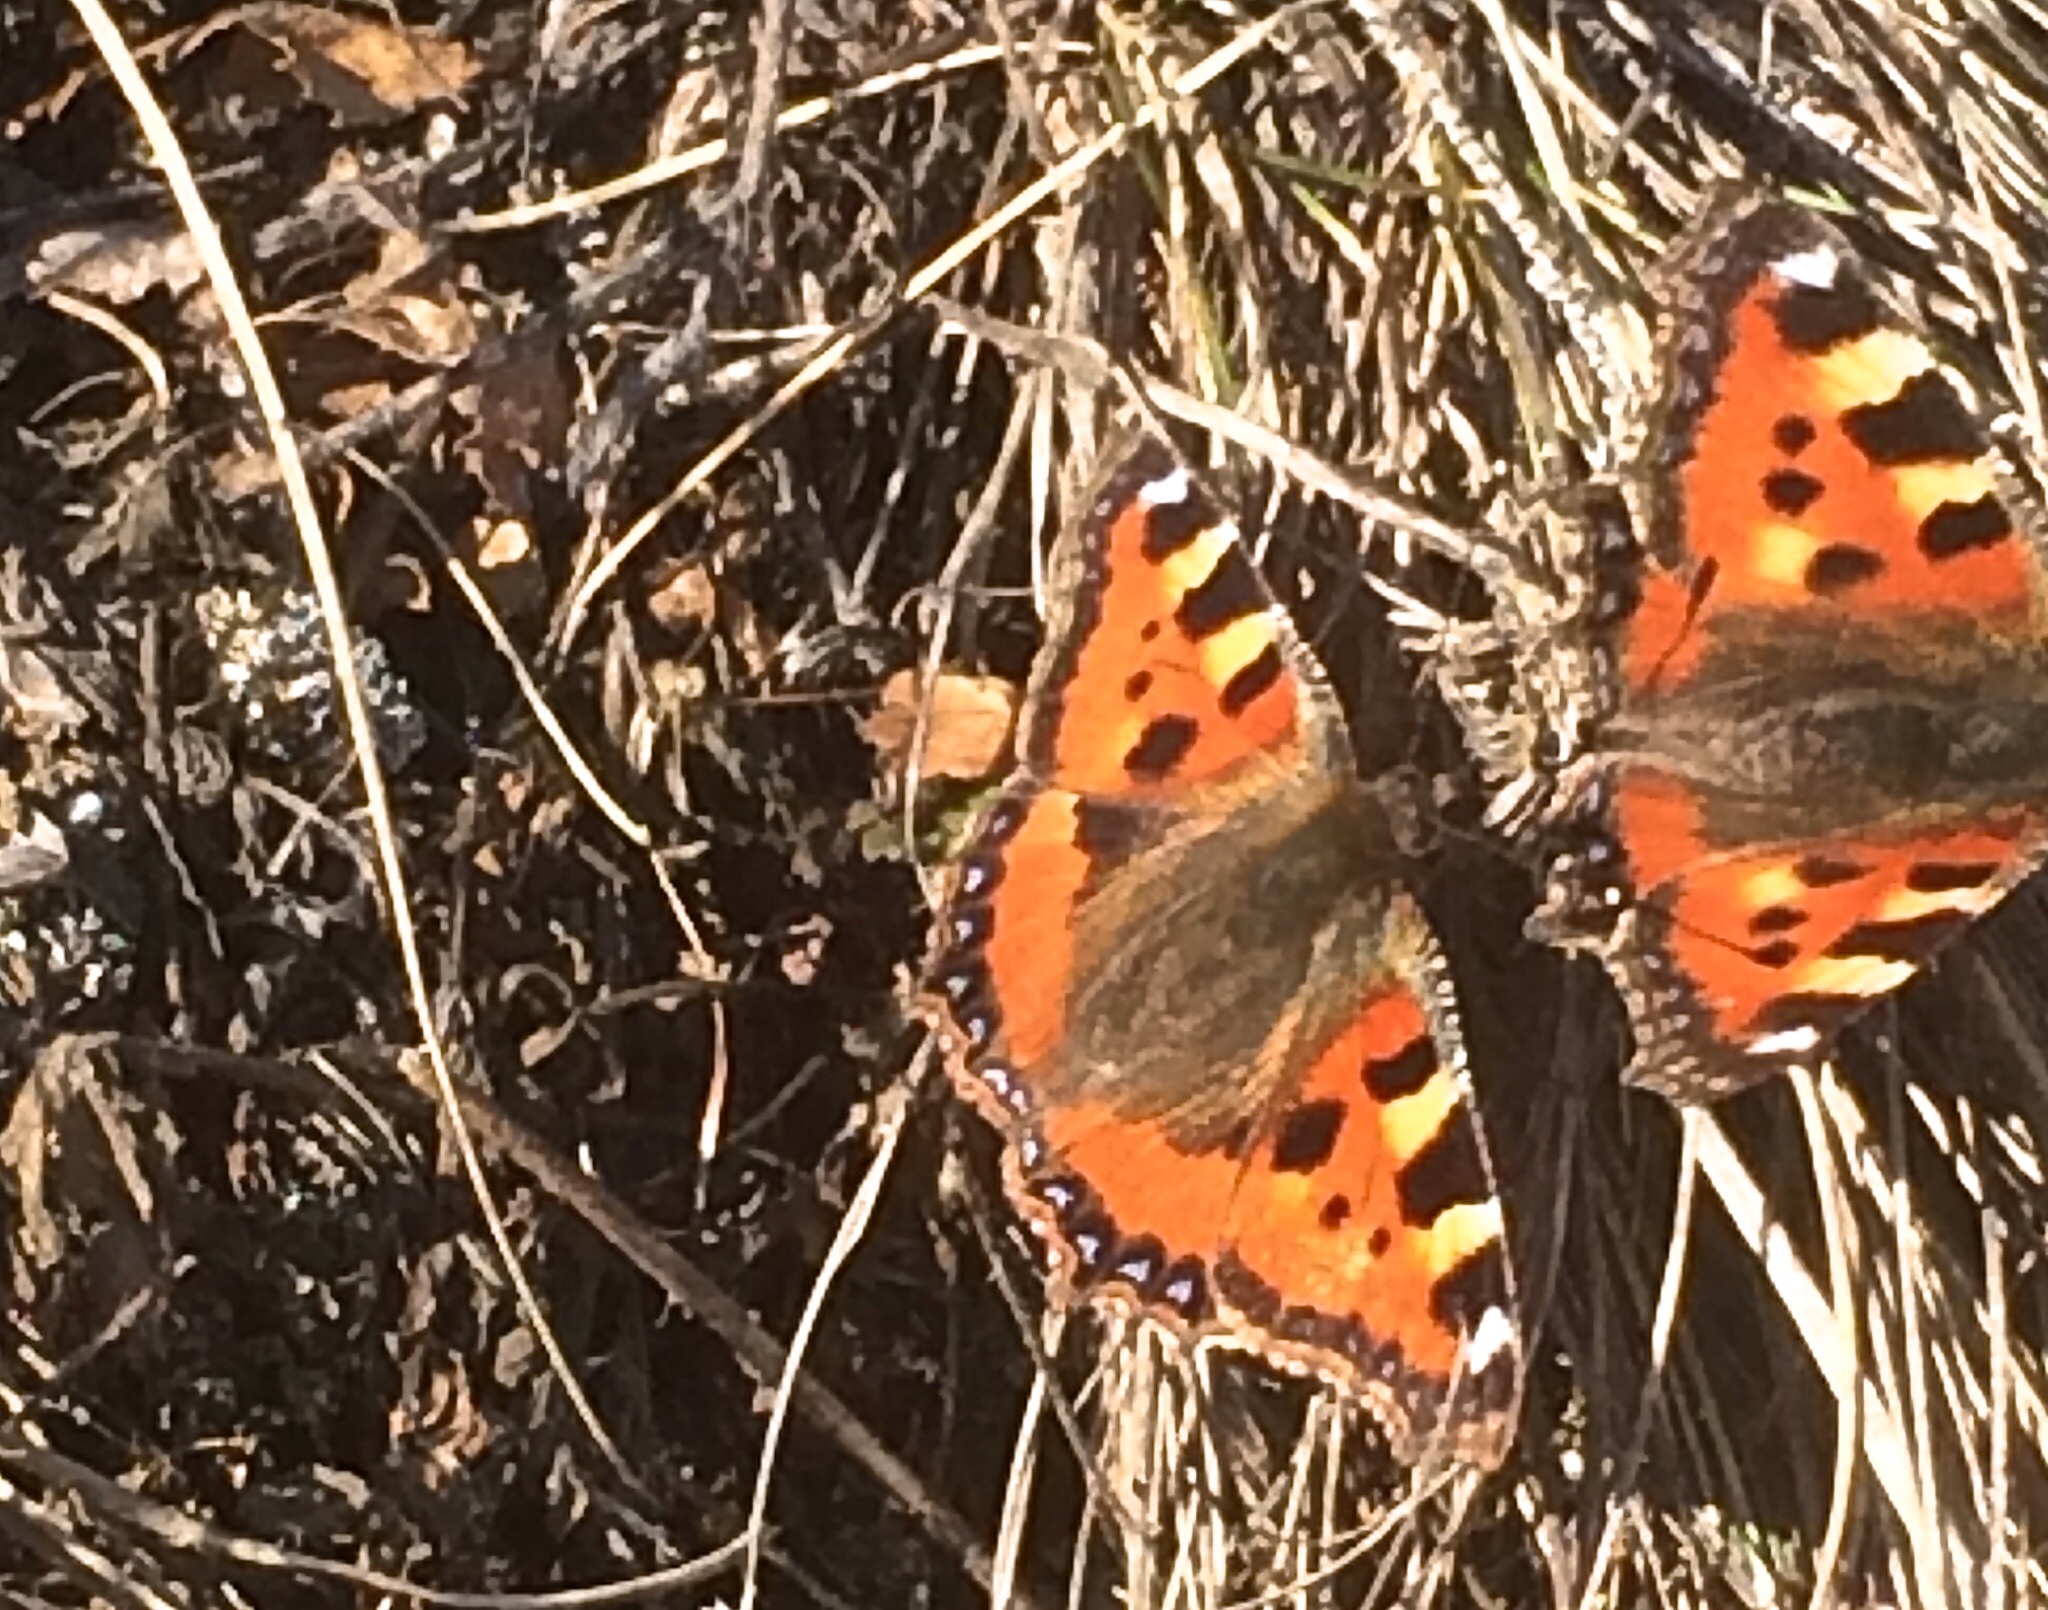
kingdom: Animalia
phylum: Arthropoda
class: Insecta
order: Lepidoptera
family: Nymphalidae
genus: Aglais
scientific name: Aglais urticae
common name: Small tortoiseshell
